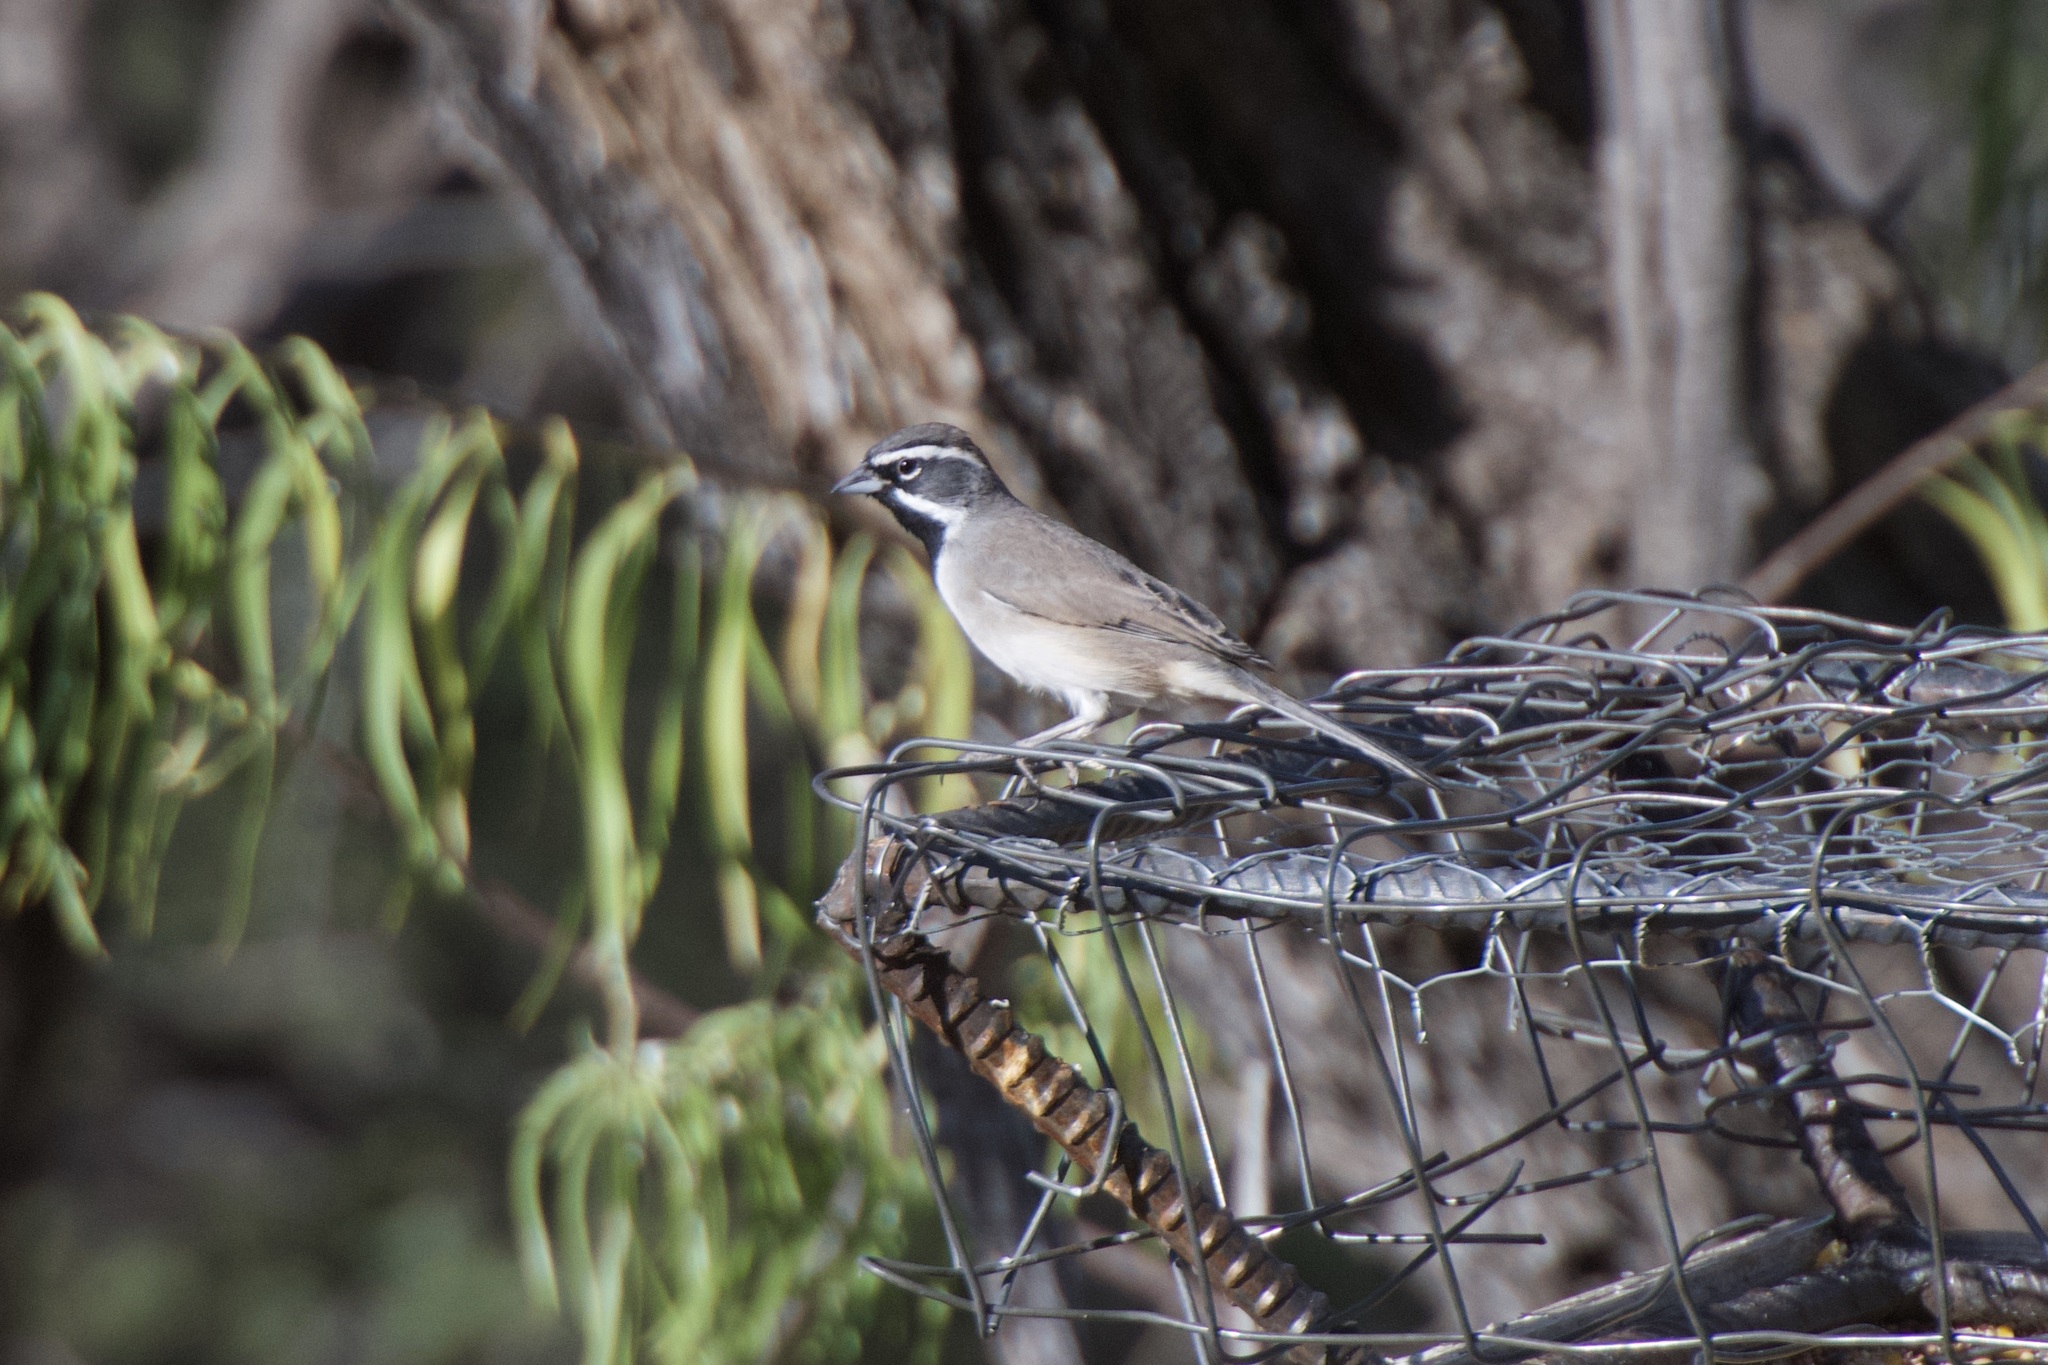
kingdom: Animalia
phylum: Chordata
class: Aves
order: Passeriformes
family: Passerellidae
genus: Amphispiza
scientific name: Amphispiza bilineata
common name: Black-throated sparrow
